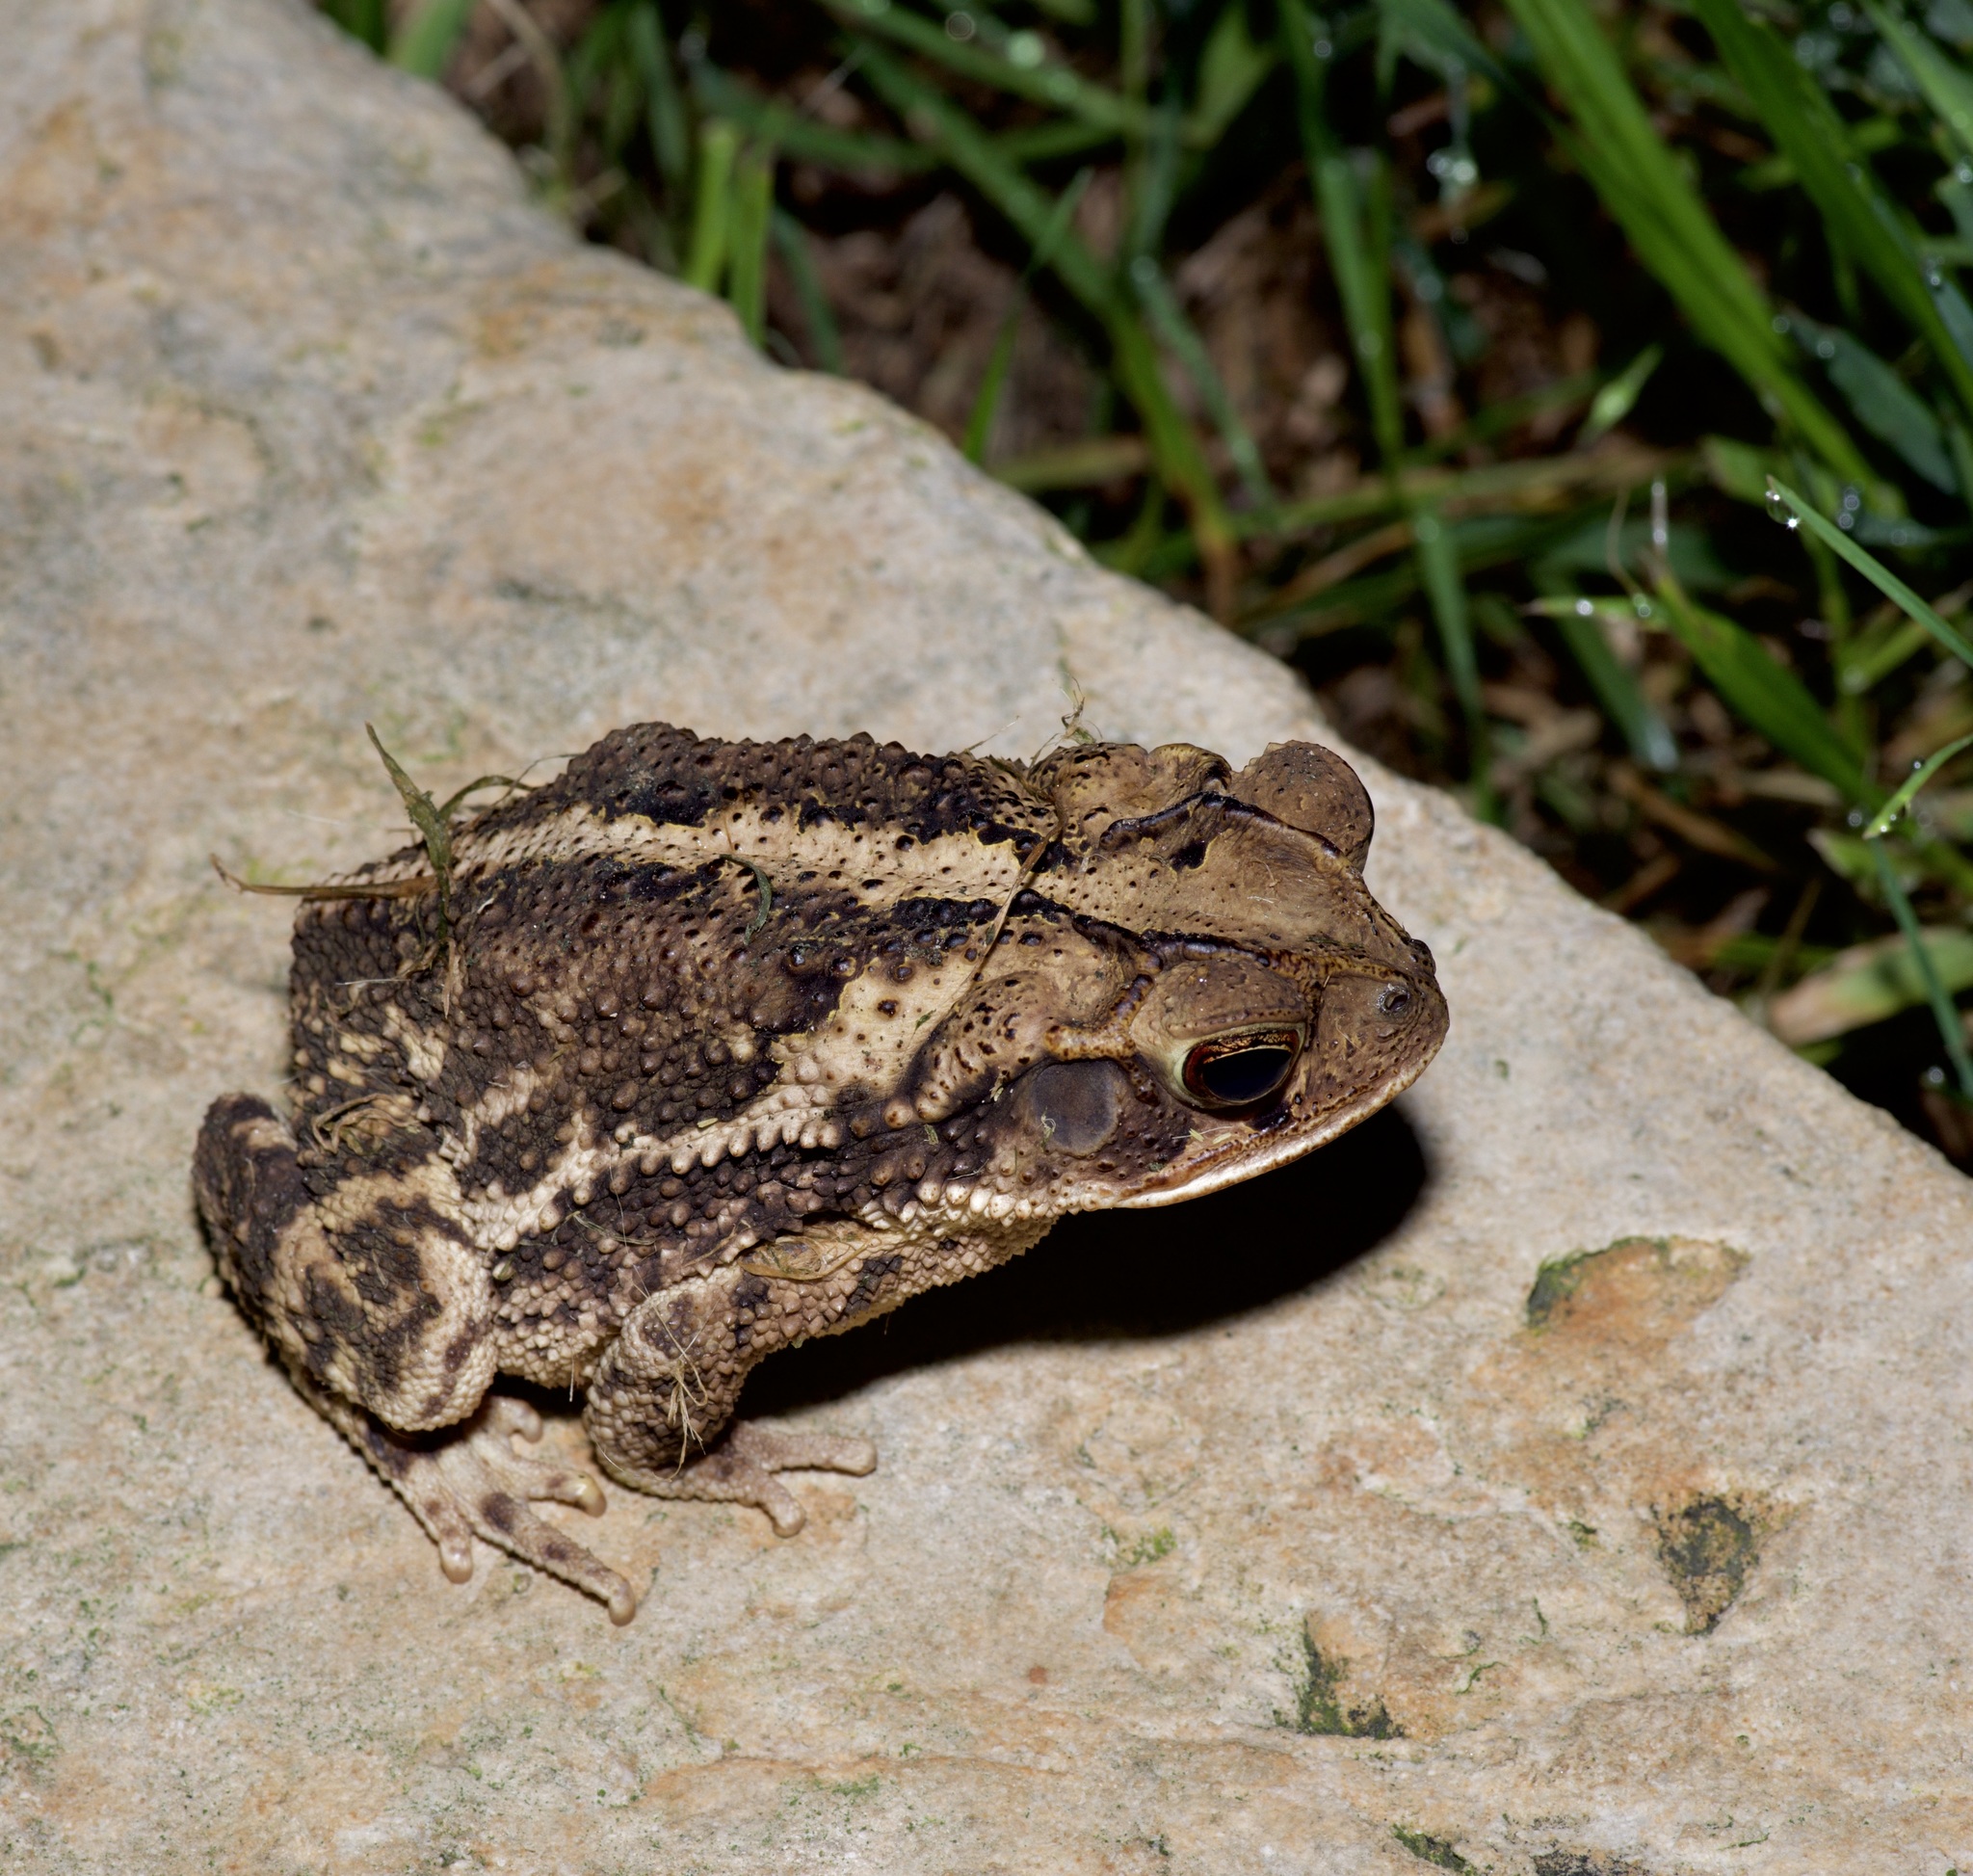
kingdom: Animalia
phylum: Chordata
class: Amphibia
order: Anura
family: Bufonidae
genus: Incilius
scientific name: Incilius nebulifer
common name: Gulf coast toad
